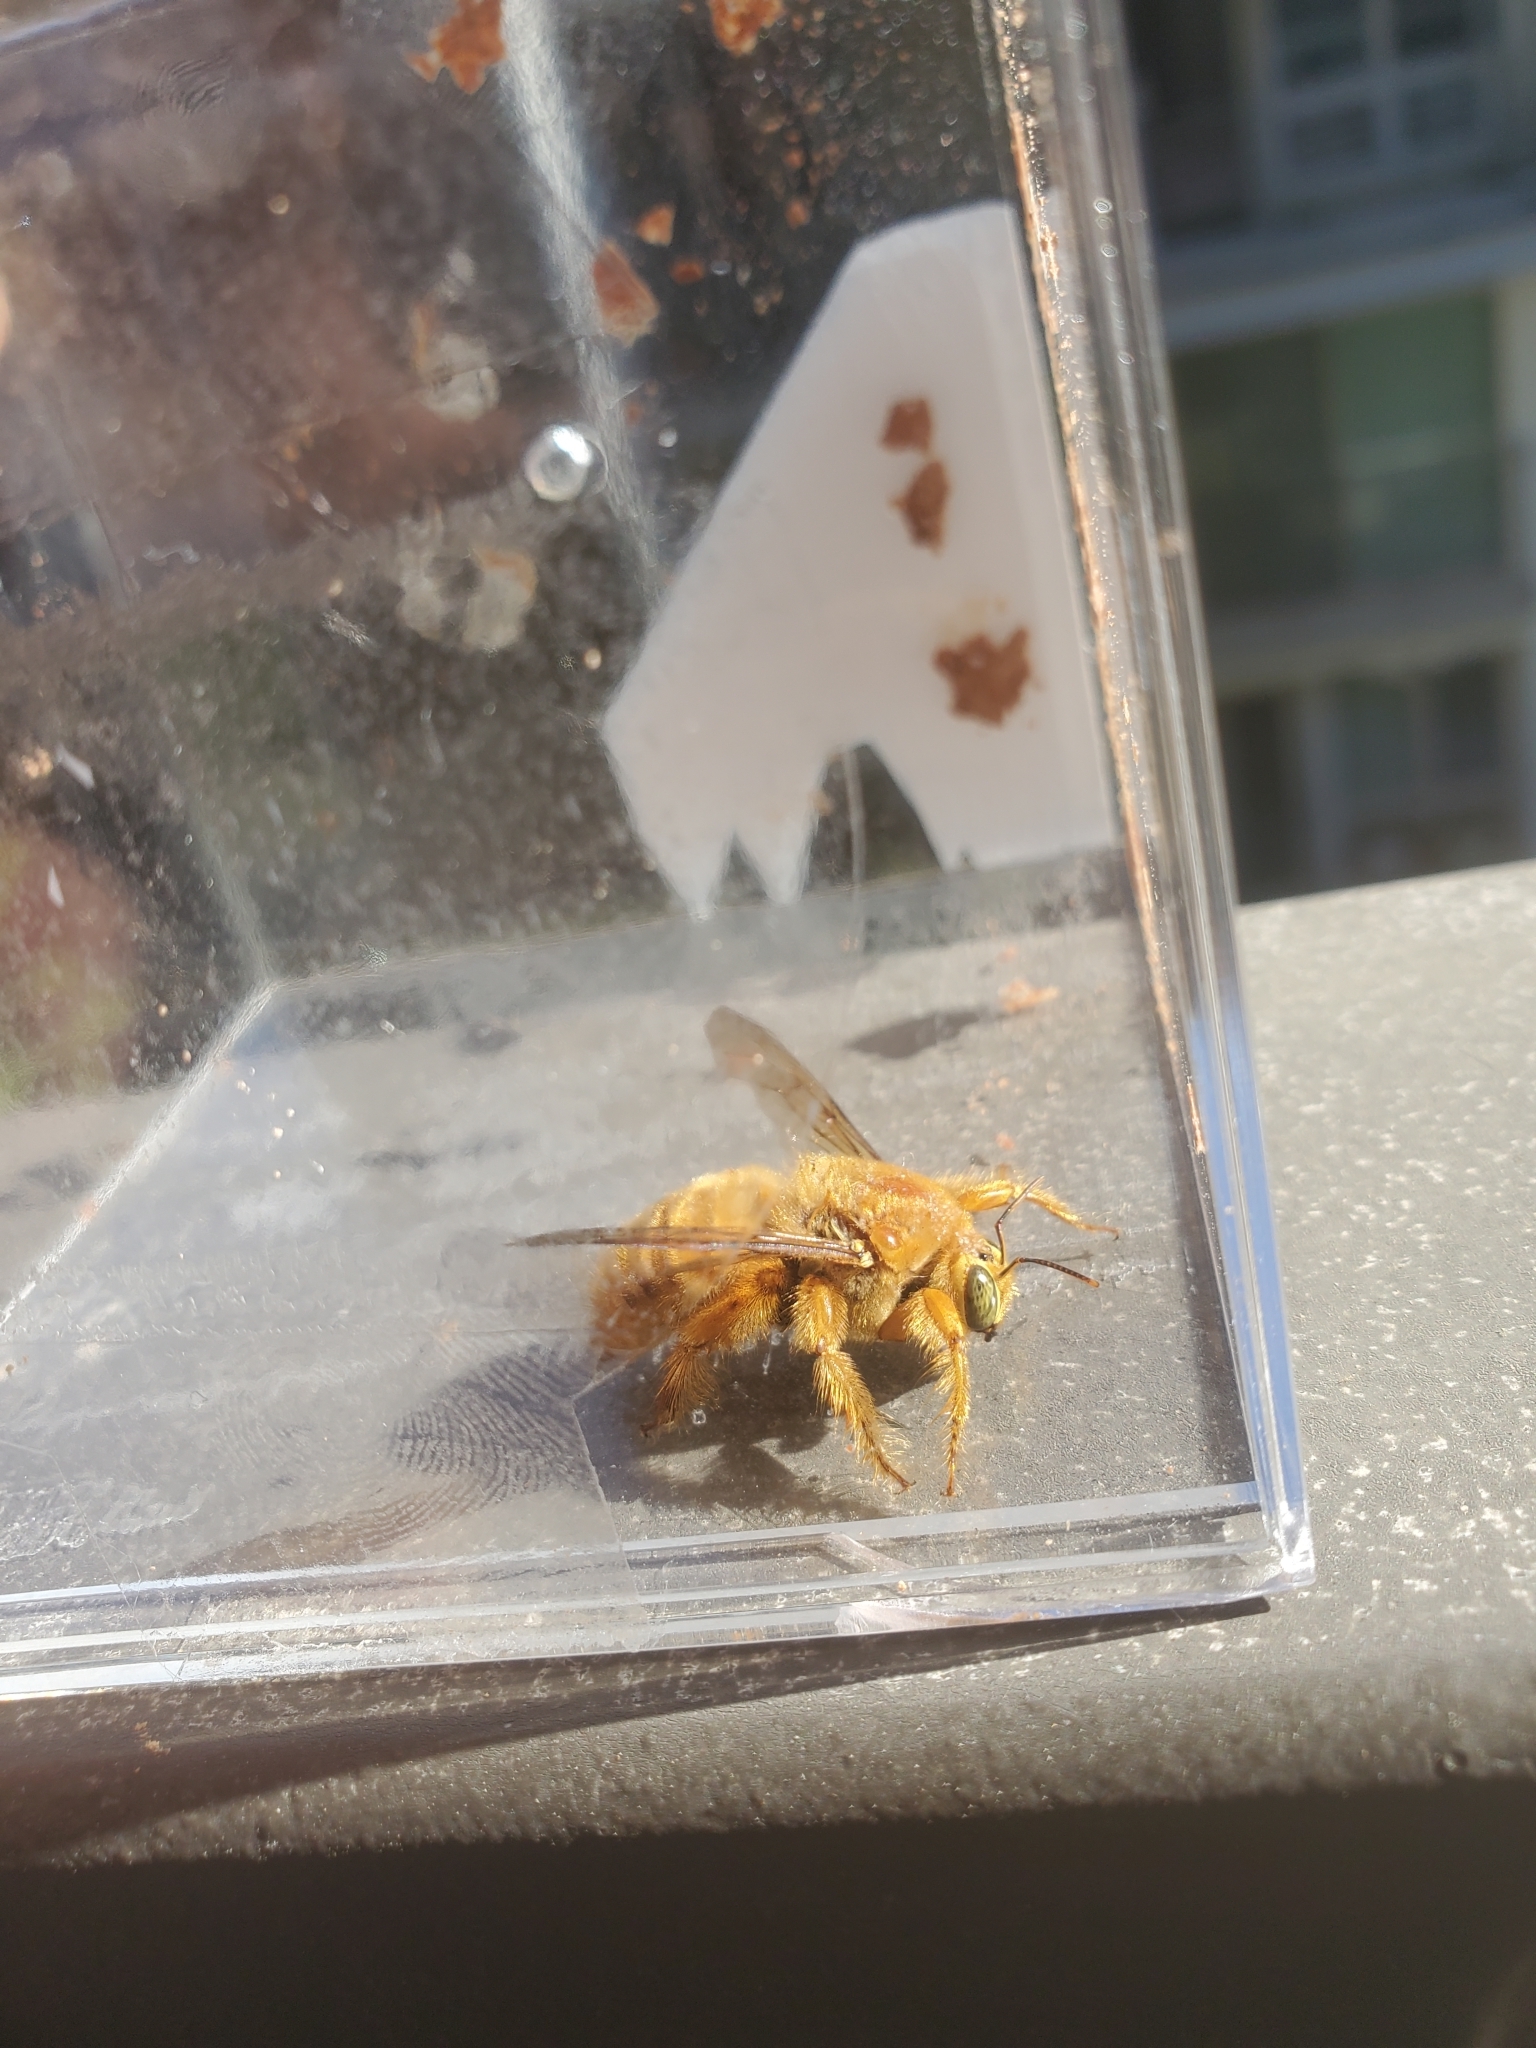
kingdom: Animalia
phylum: Arthropoda
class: Insecta
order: Hymenoptera
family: Apidae
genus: Xylocopa
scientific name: Xylocopa sonorina
